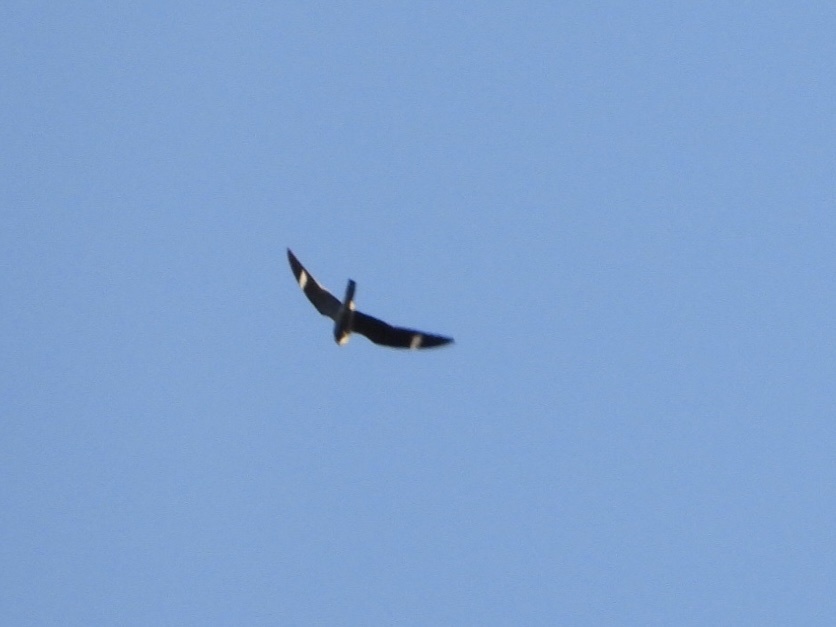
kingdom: Animalia
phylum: Chordata
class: Aves
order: Caprimulgiformes
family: Caprimulgidae
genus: Chordeiles
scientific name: Chordeiles minor
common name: Common nighthawk
